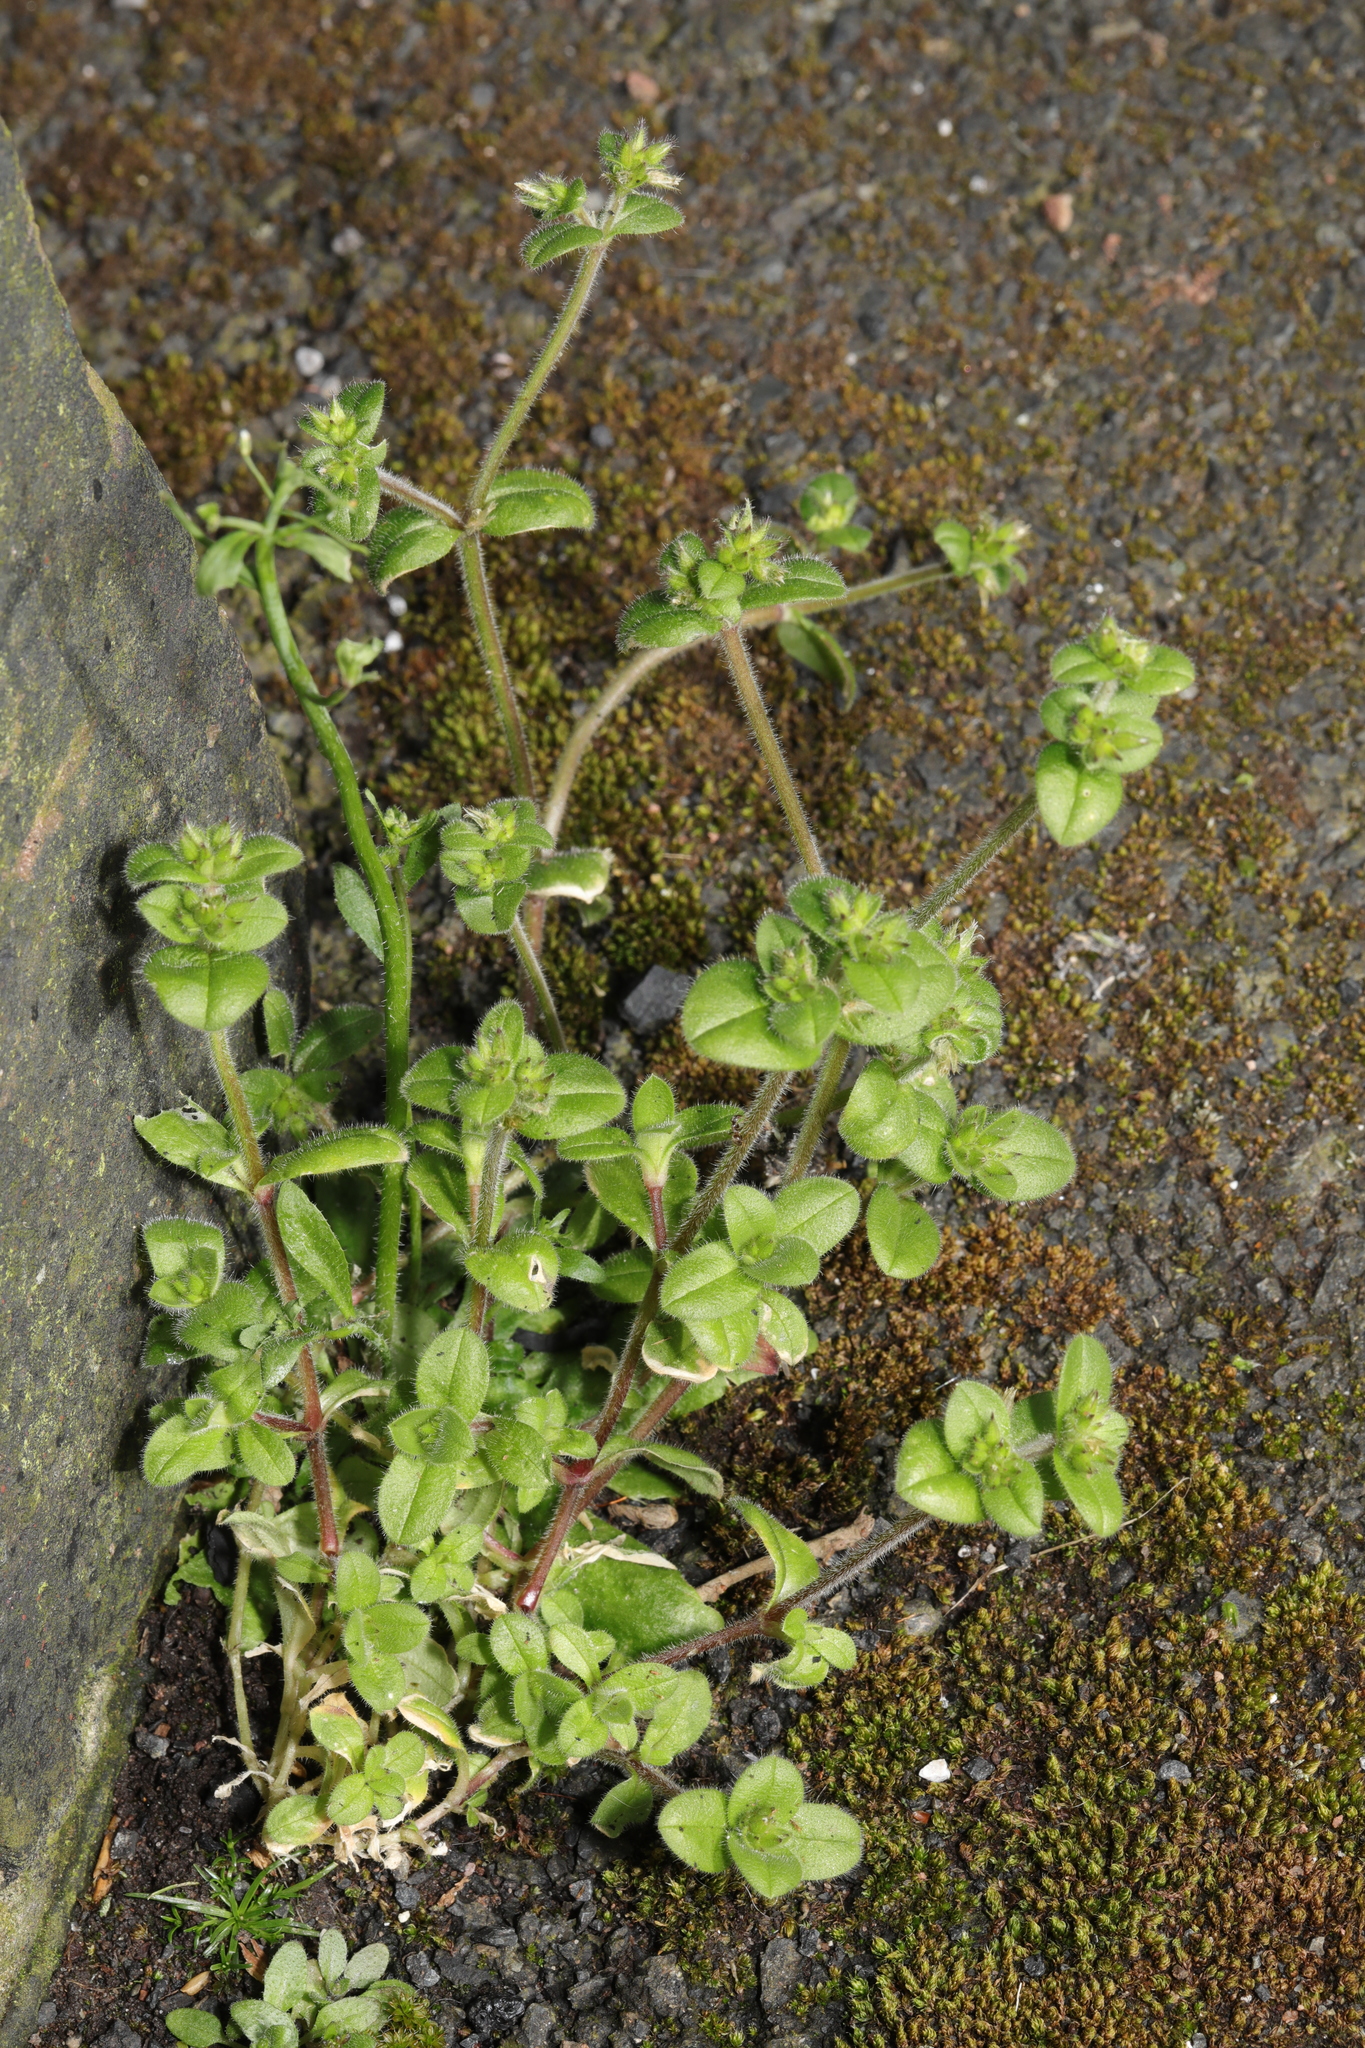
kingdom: Plantae
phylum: Tracheophyta
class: Magnoliopsida
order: Caryophyllales
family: Caryophyllaceae
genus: Cerastium
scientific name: Cerastium glomeratum
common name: Sticky chickweed
